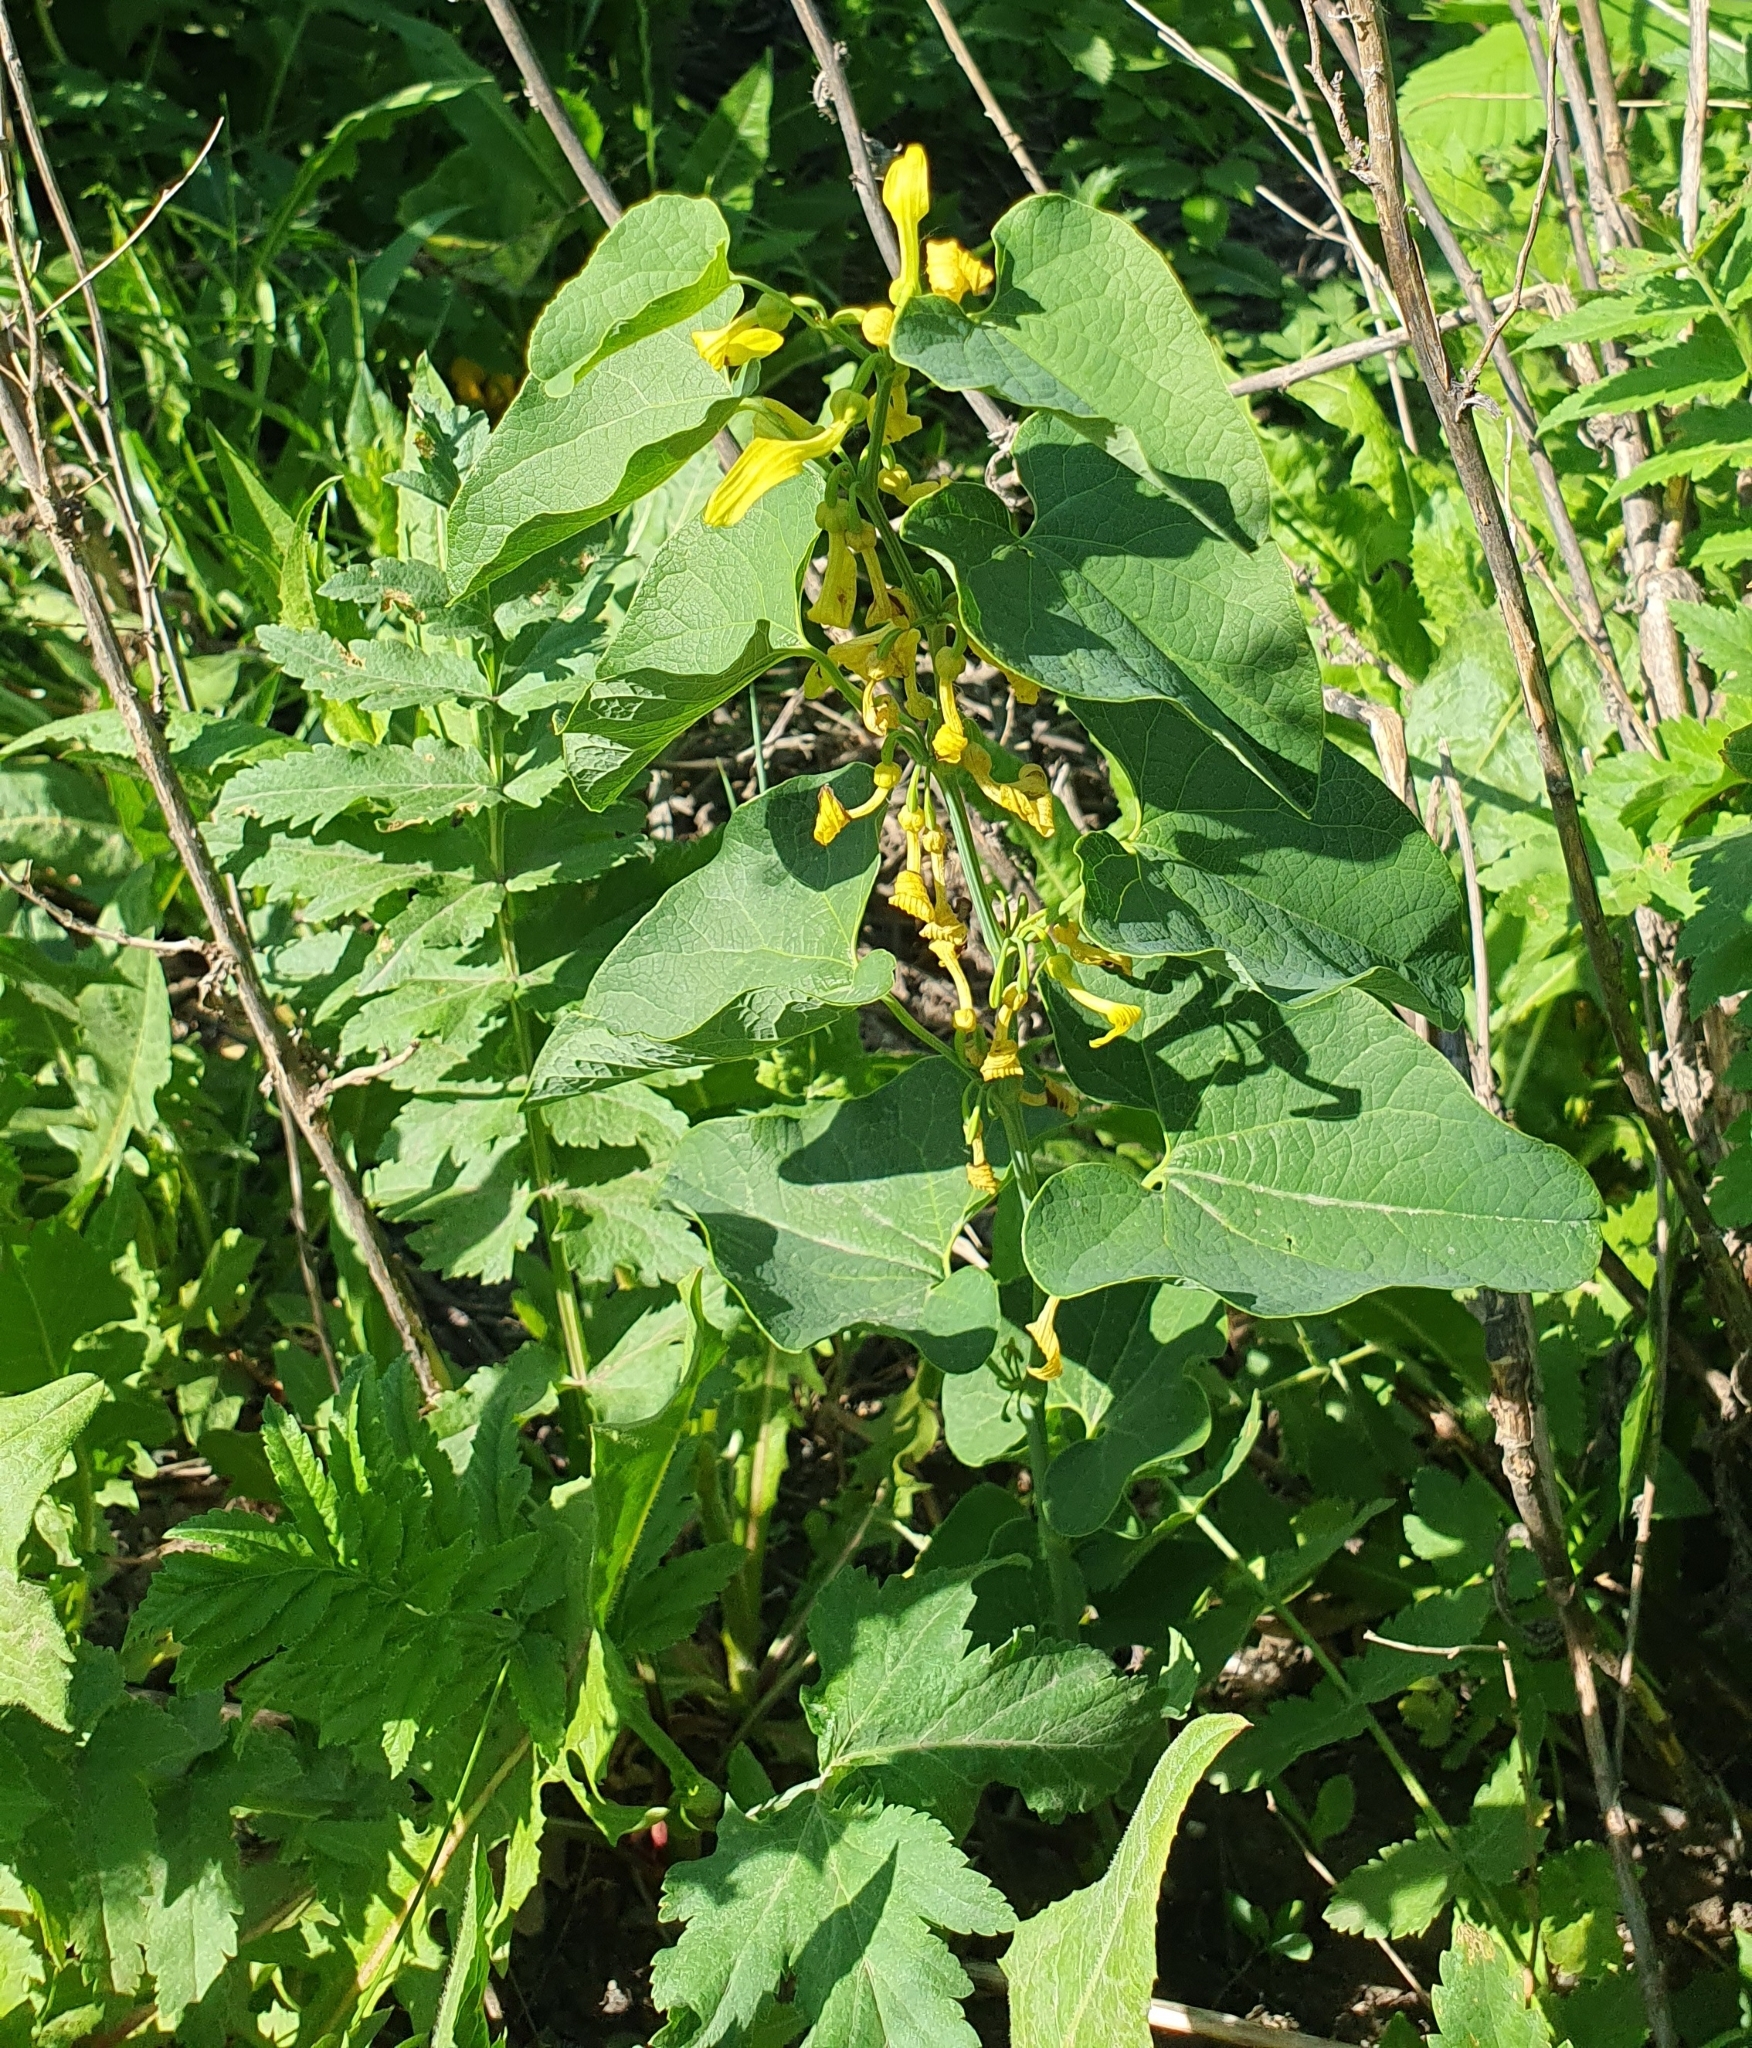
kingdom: Plantae
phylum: Tracheophyta
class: Magnoliopsida
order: Piperales
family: Aristolochiaceae
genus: Aristolochia
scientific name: Aristolochia clematitis
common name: Birthwort
